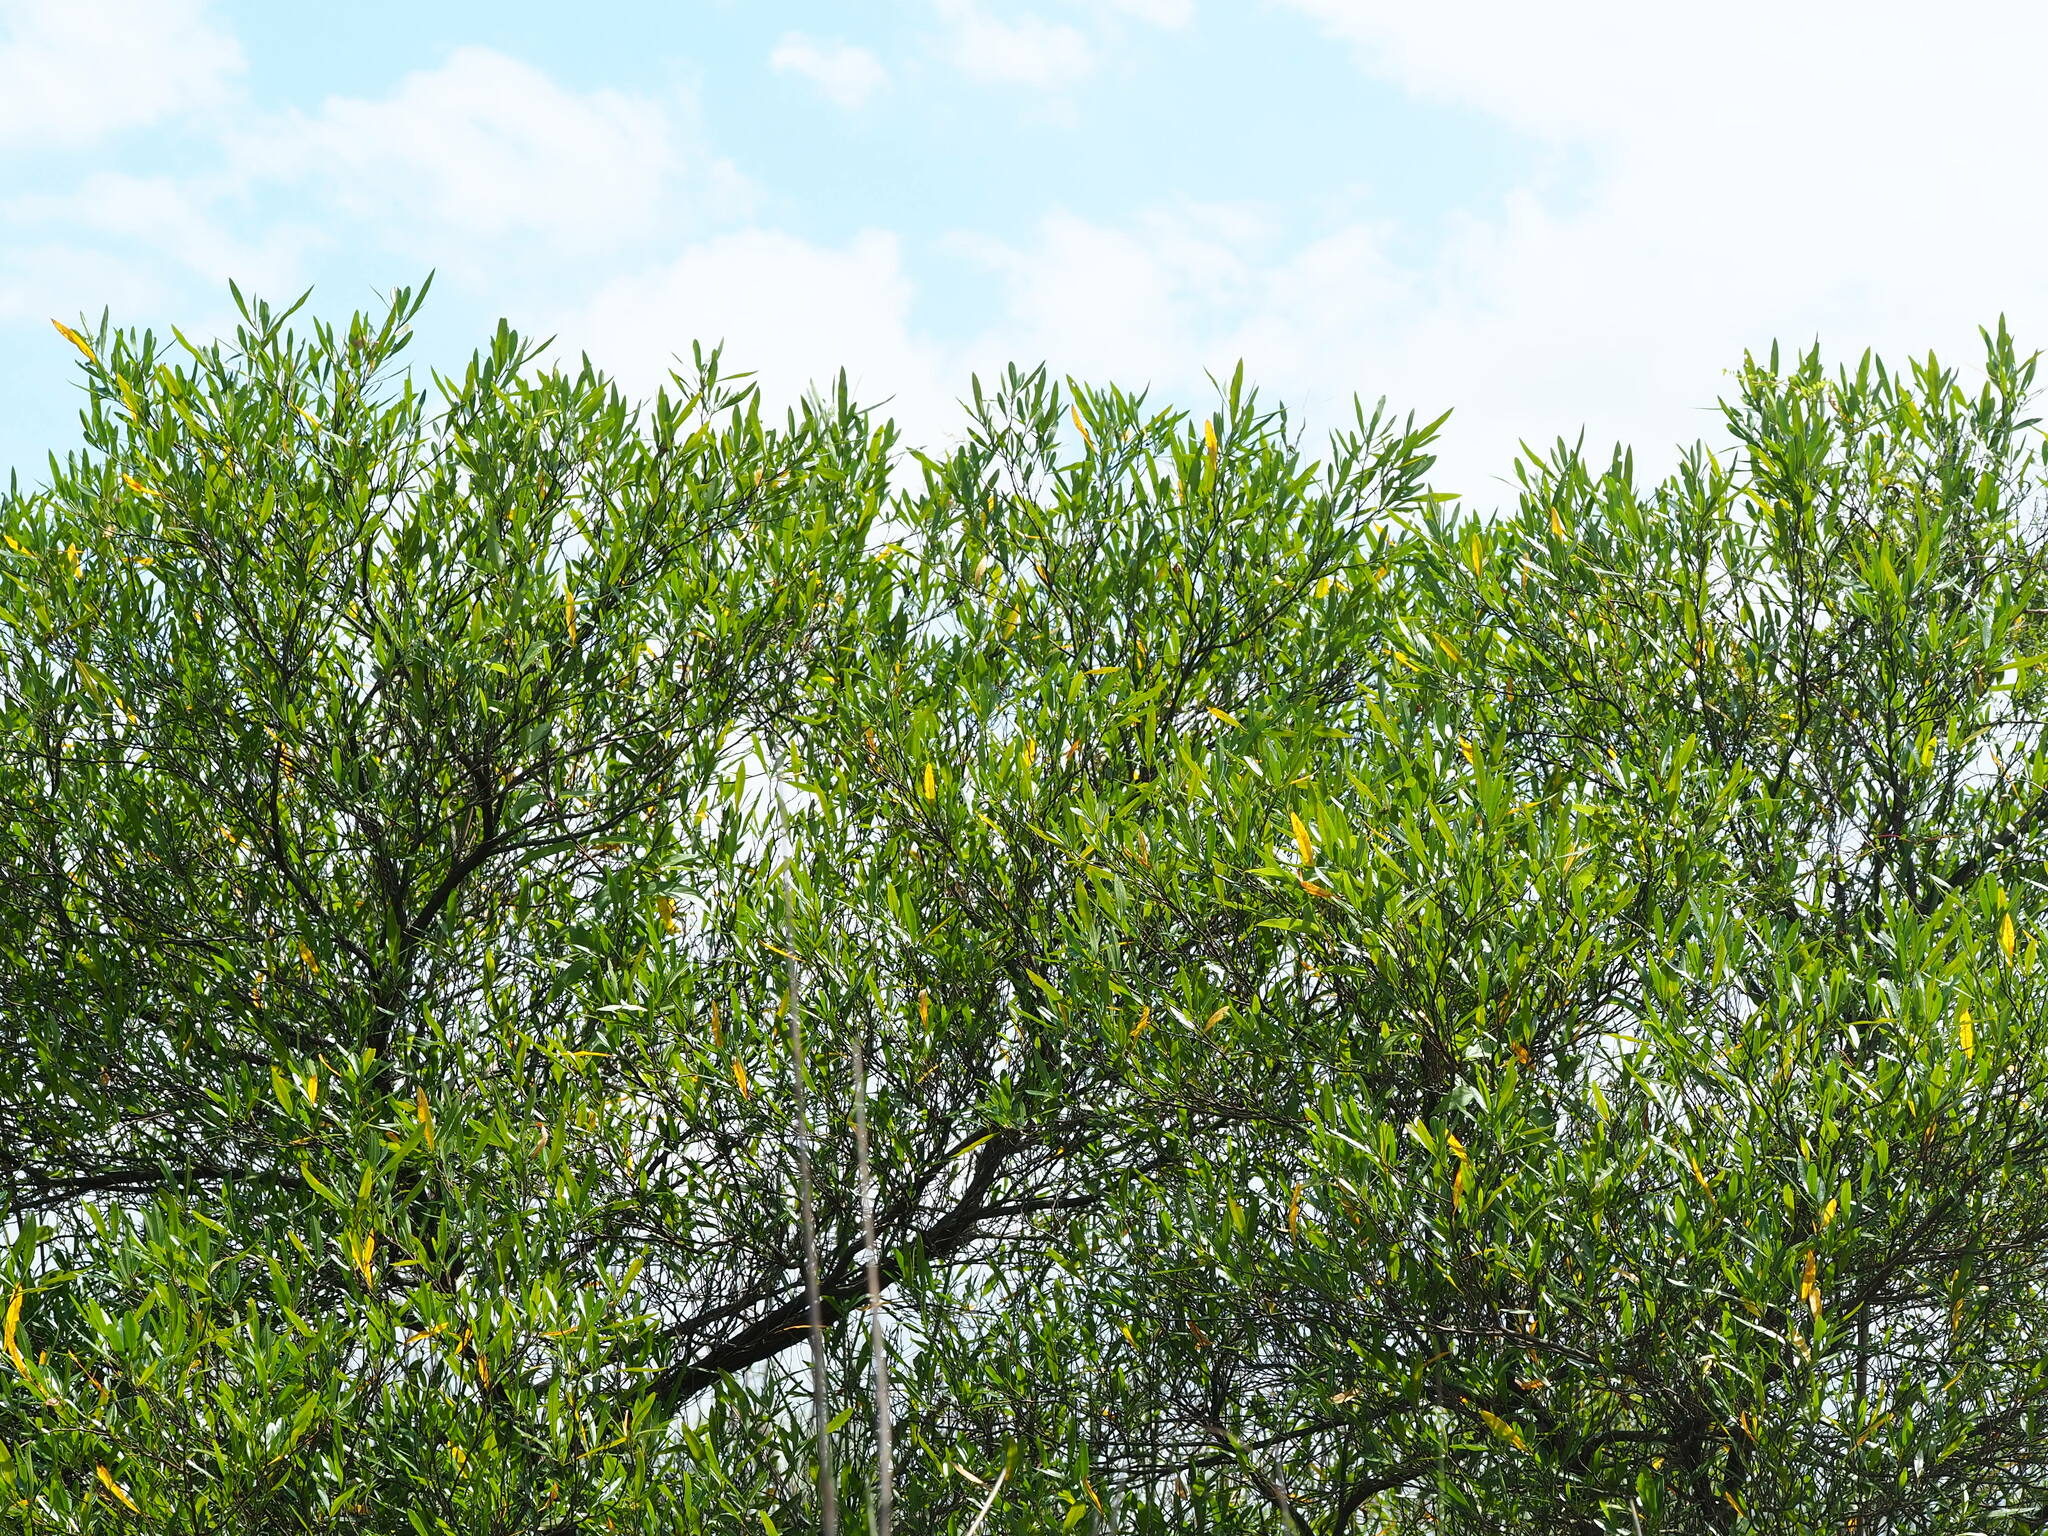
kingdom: Plantae
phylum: Tracheophyta
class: Magnoliopsida
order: Sapindales
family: Sapindaceae
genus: Dodonaea
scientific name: Dodonaea viscosa
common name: Hopbush
